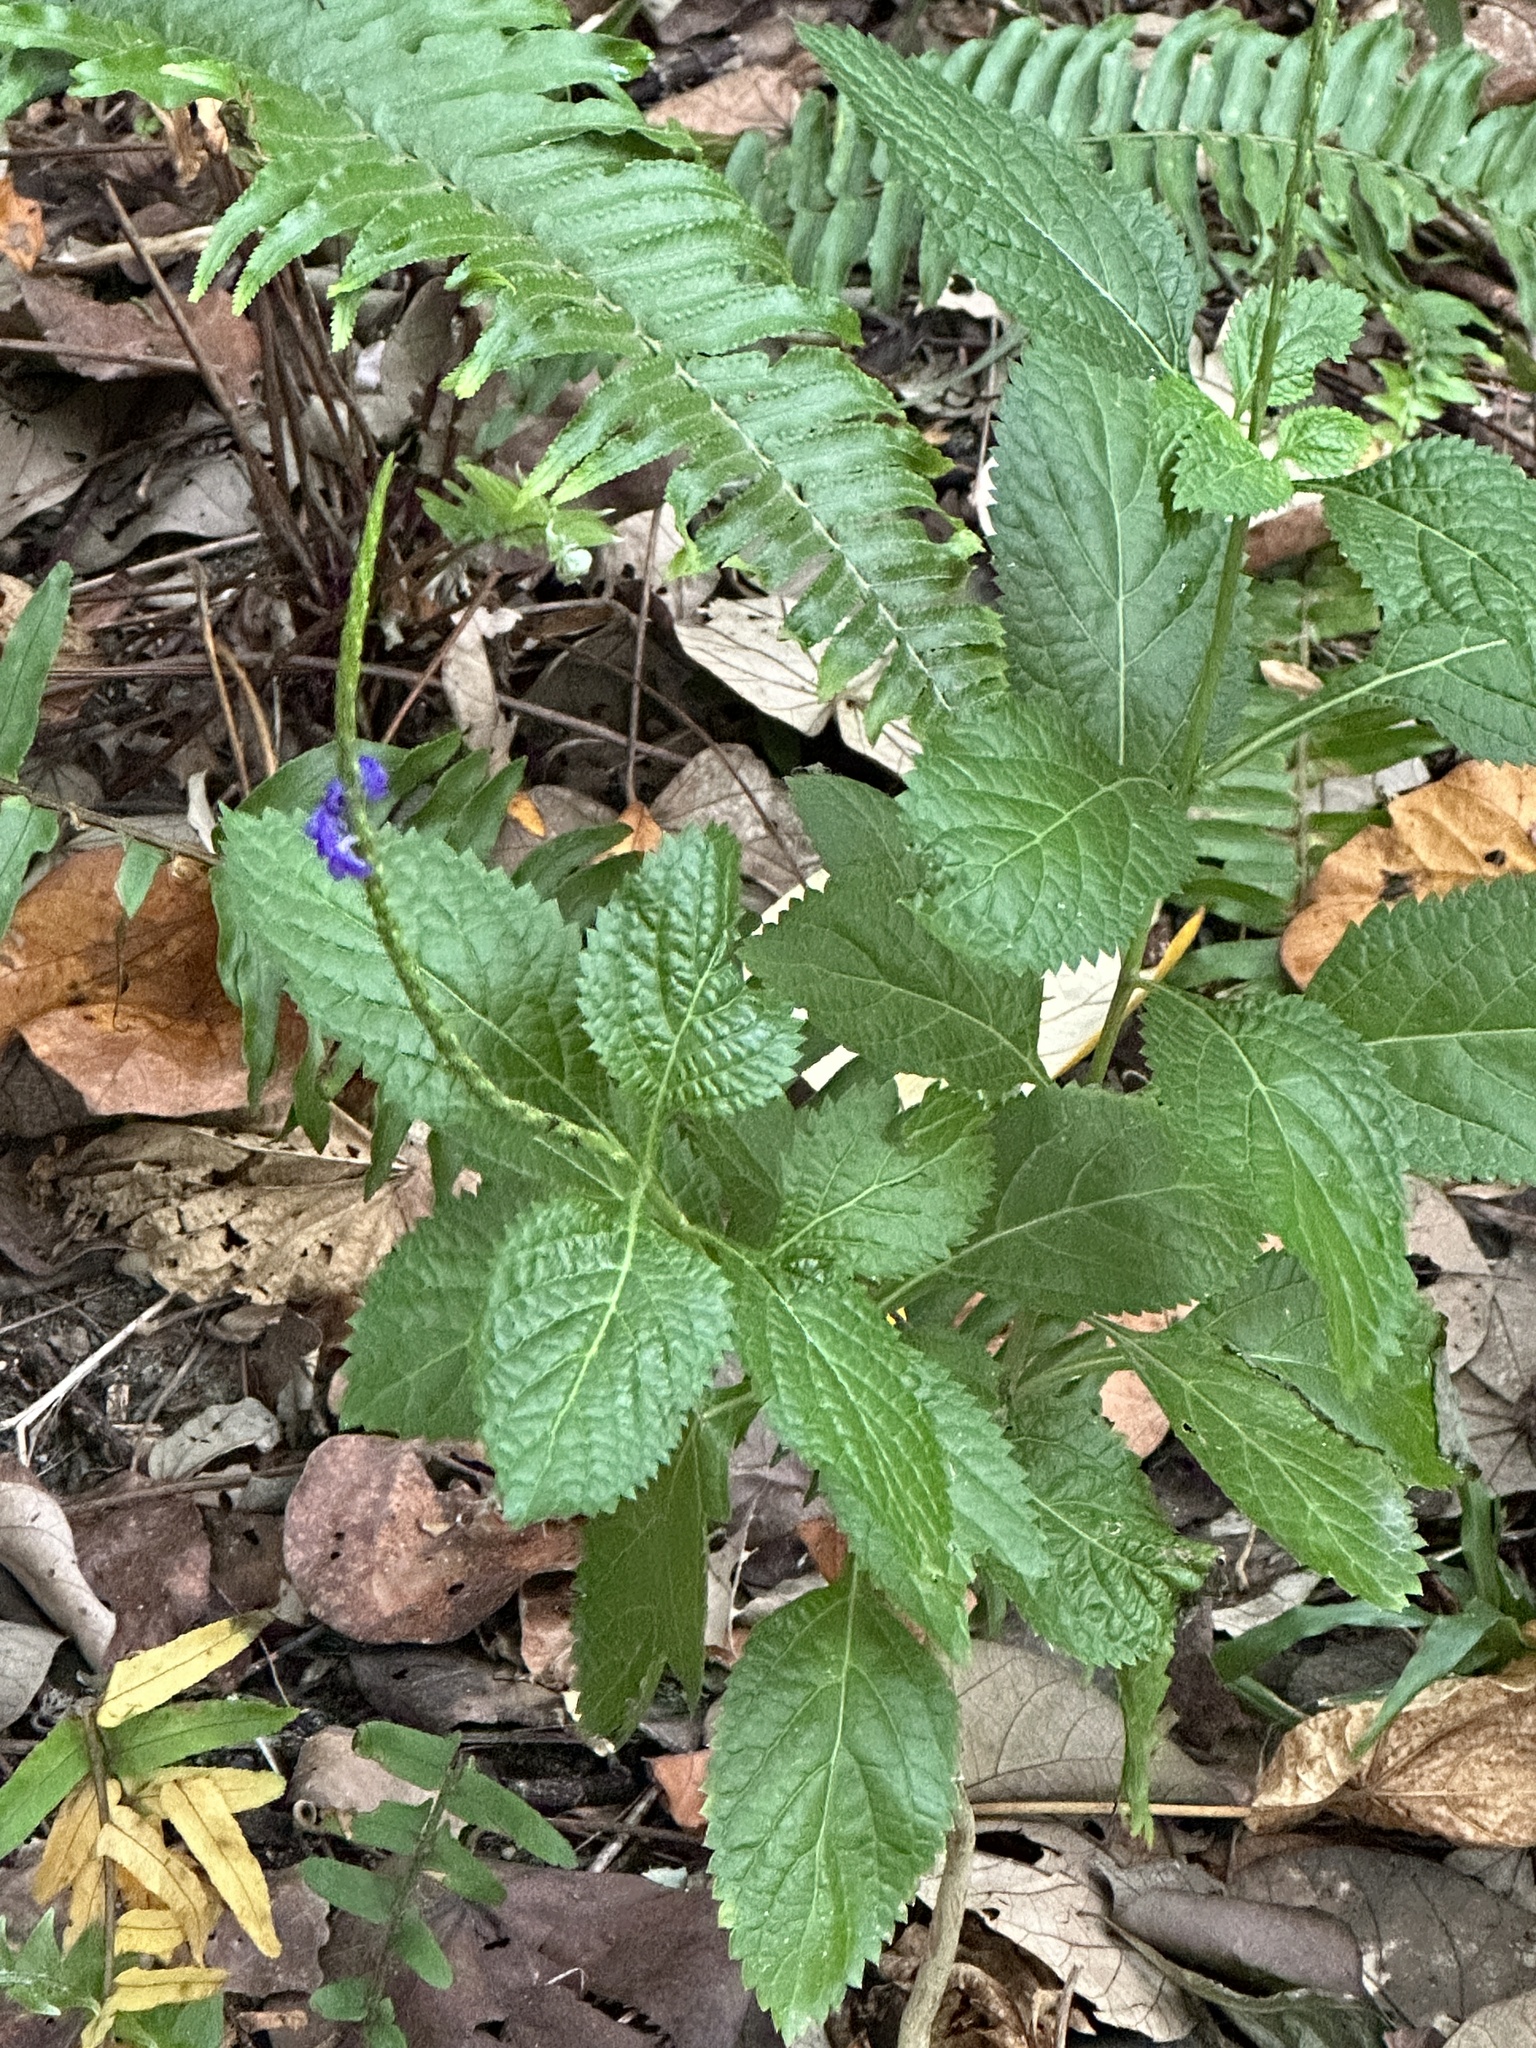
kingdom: Plantae
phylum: Tracheophyta
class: Magnoliopsida
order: Lamiales
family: Verbenaceae
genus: Stachytarpheta
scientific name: Stachytarpheta urticifolia
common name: Nettleleaf velvetberry
